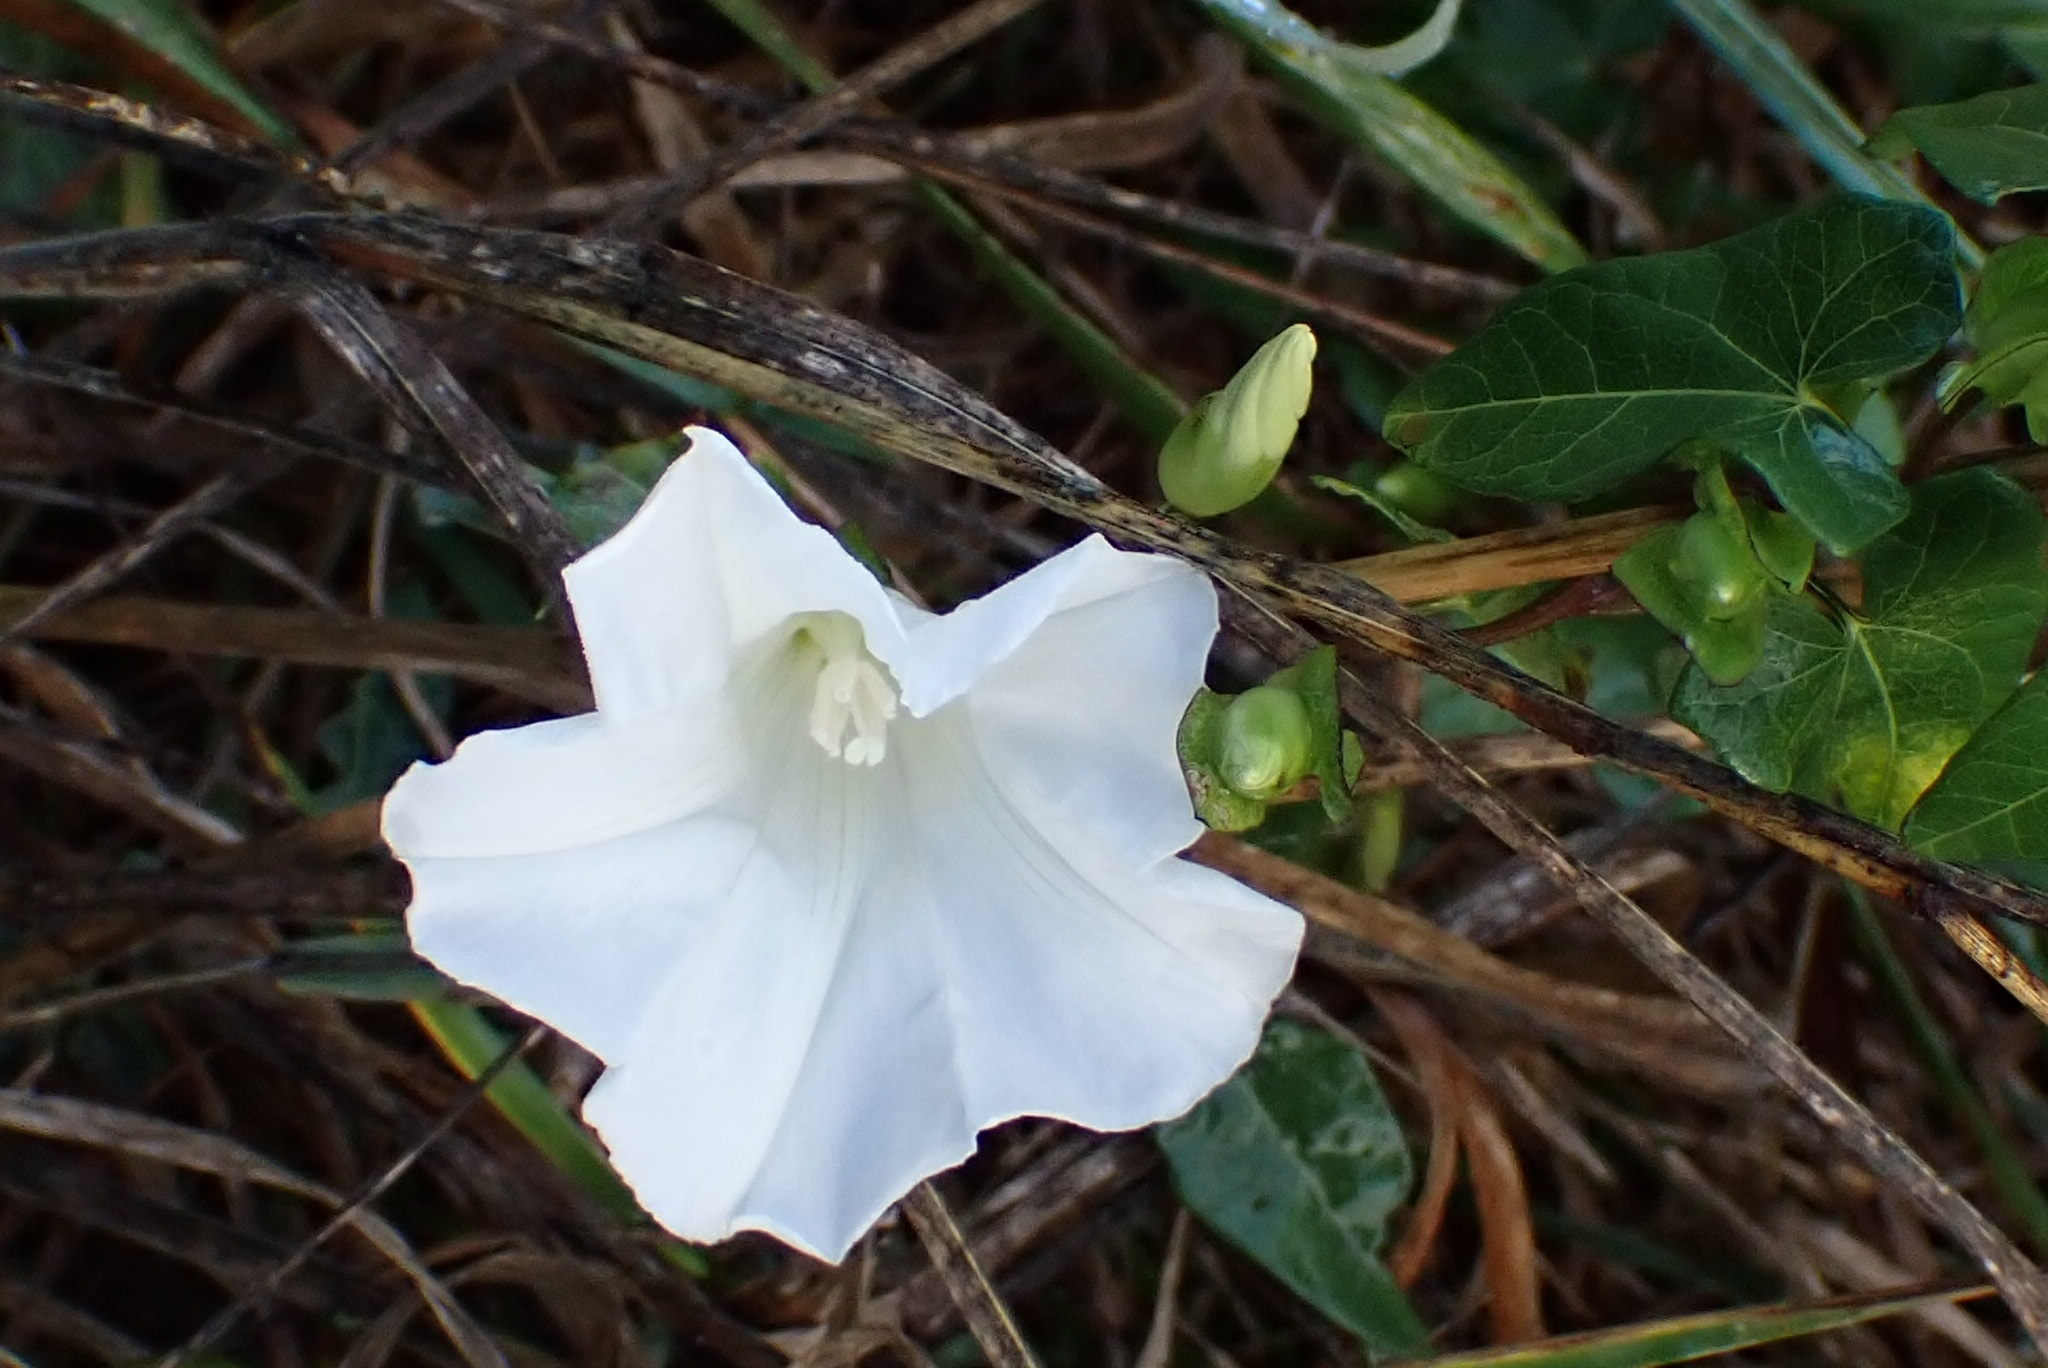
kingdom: Plantae
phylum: Tracheophyta
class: Magnoliopsida
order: Solanales
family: Convolvulaceae
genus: Calystegia
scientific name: Calystegia sepium
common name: Hedge bindweed
